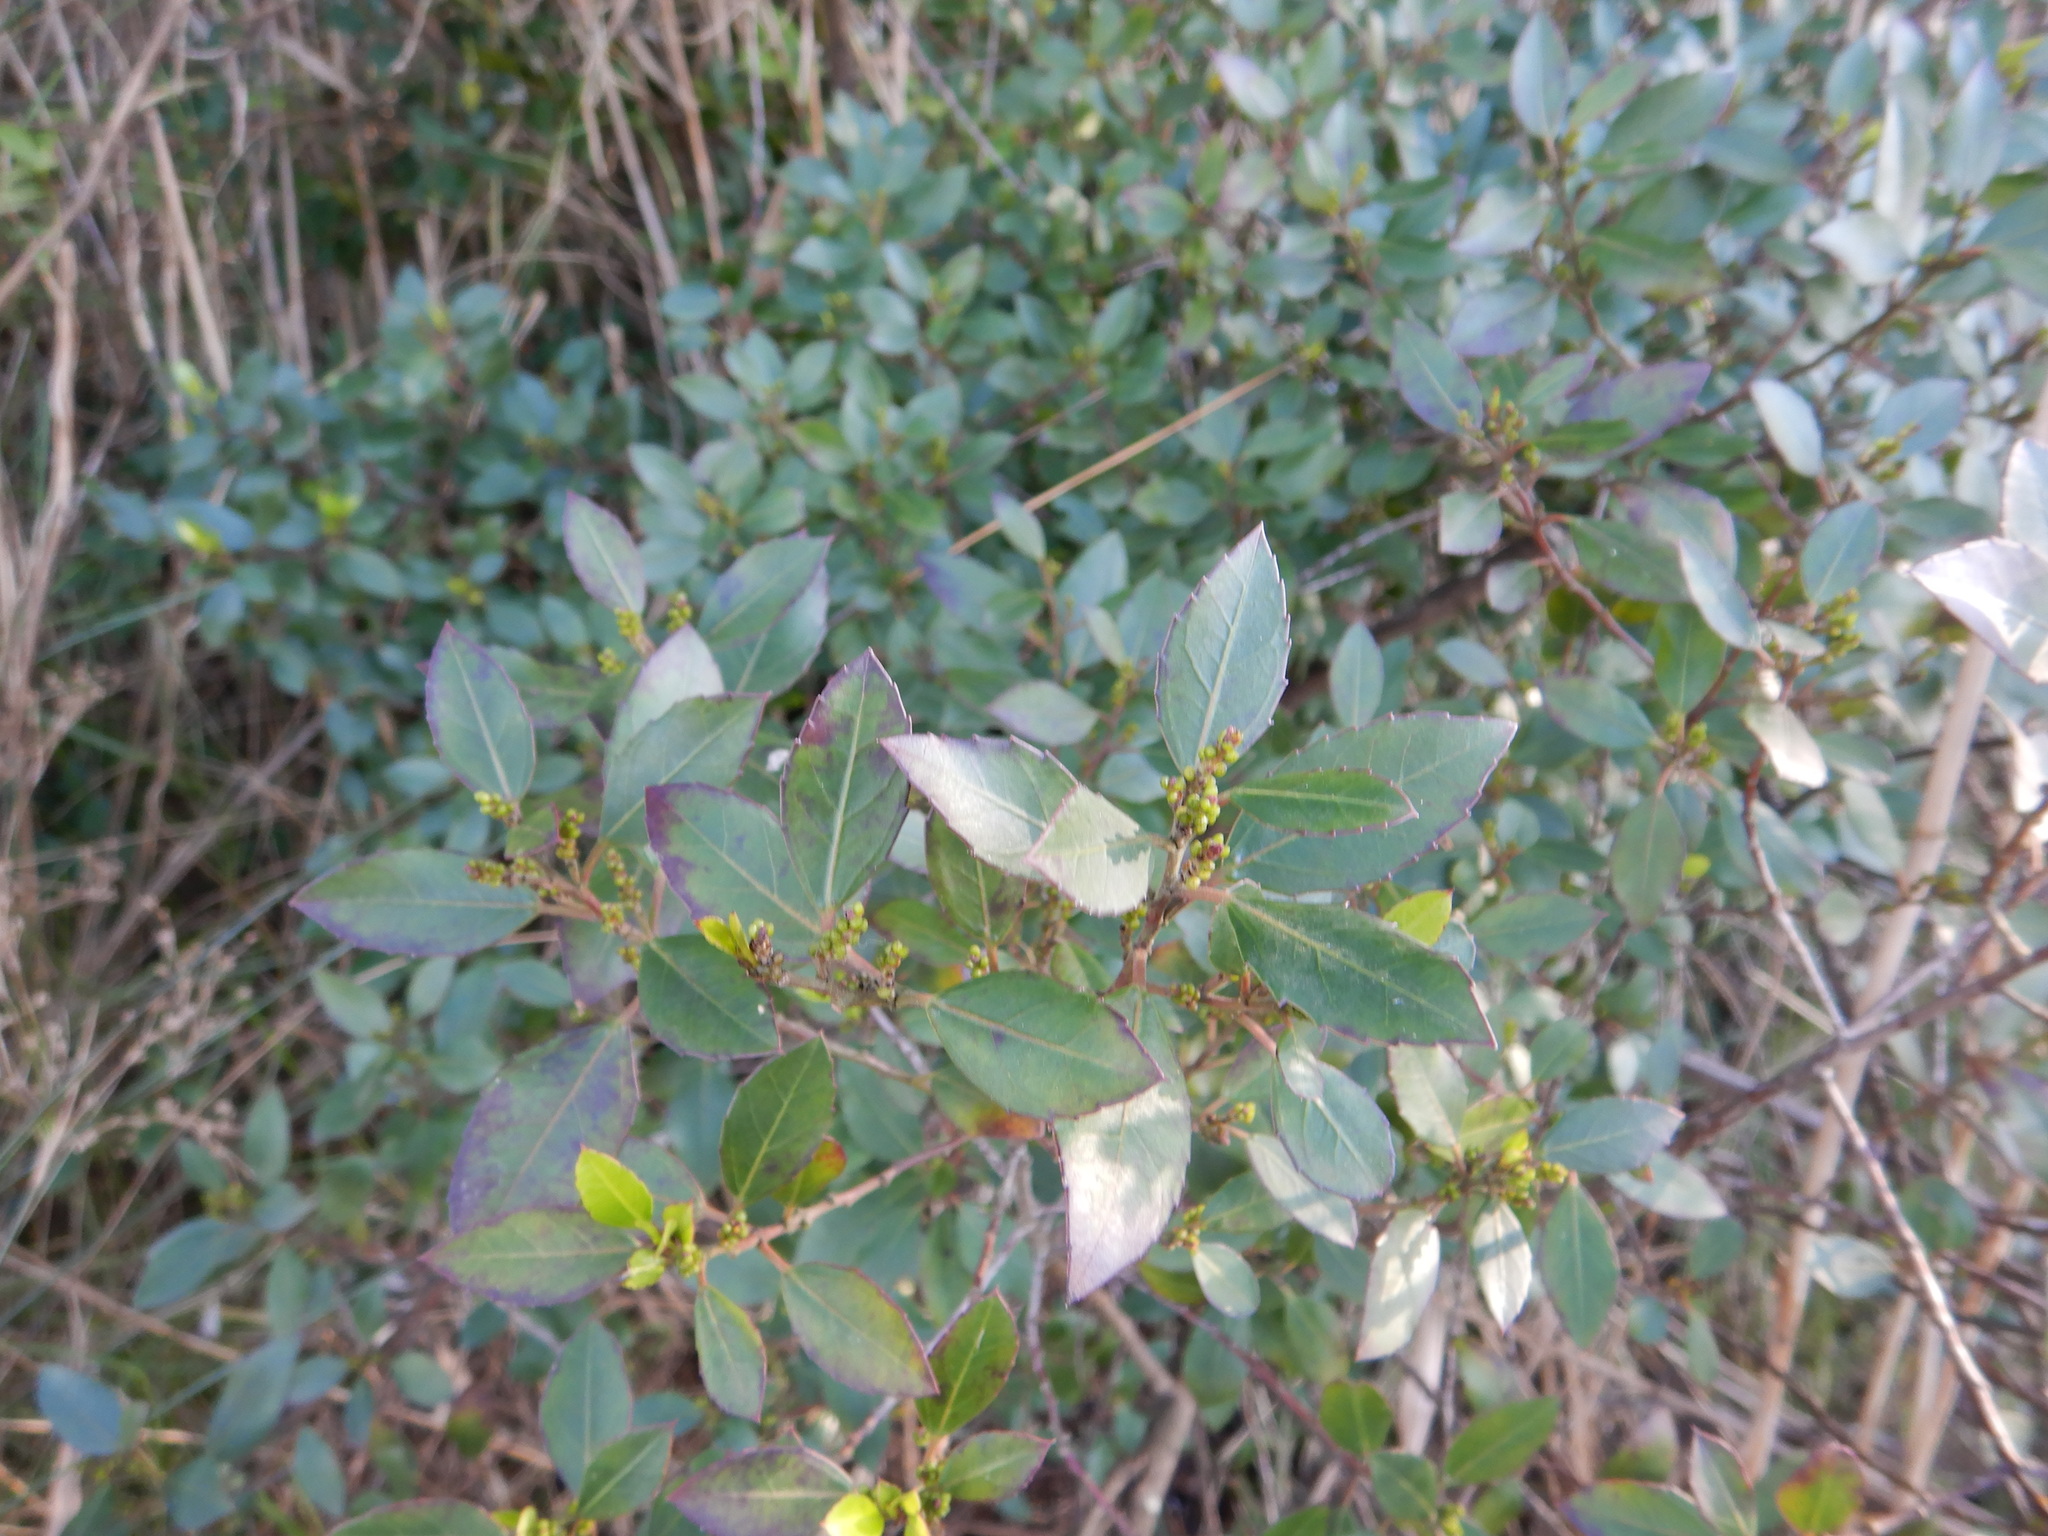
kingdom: Plantae
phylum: Tracheophyta
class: Magnoliopsida
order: Rosales
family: Rhamnaceae
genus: Rhamnus
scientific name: Rhamnus alaternus
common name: Mediterranean buckthorn
